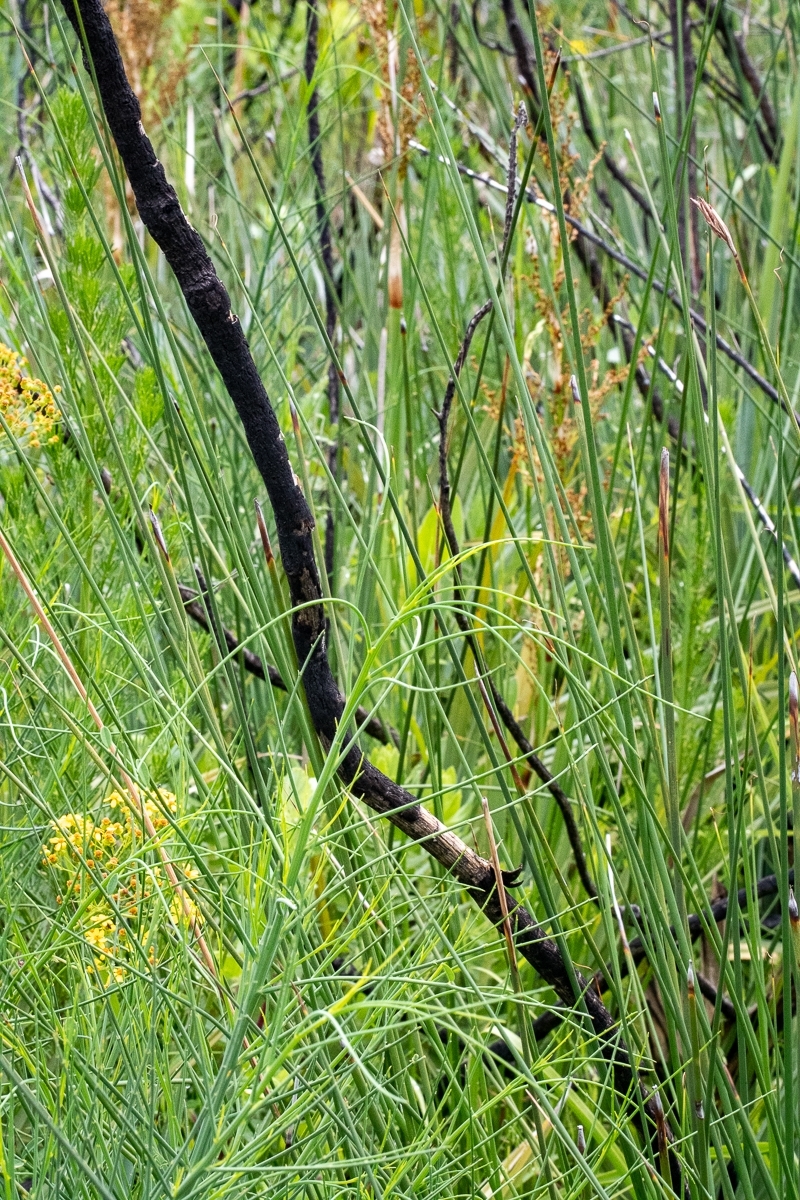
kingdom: Plantae
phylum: Tracheophyta
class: Magnoliopsida
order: Fabales
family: Fabaceae
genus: Indigofera
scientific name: Indigofera filifolia
